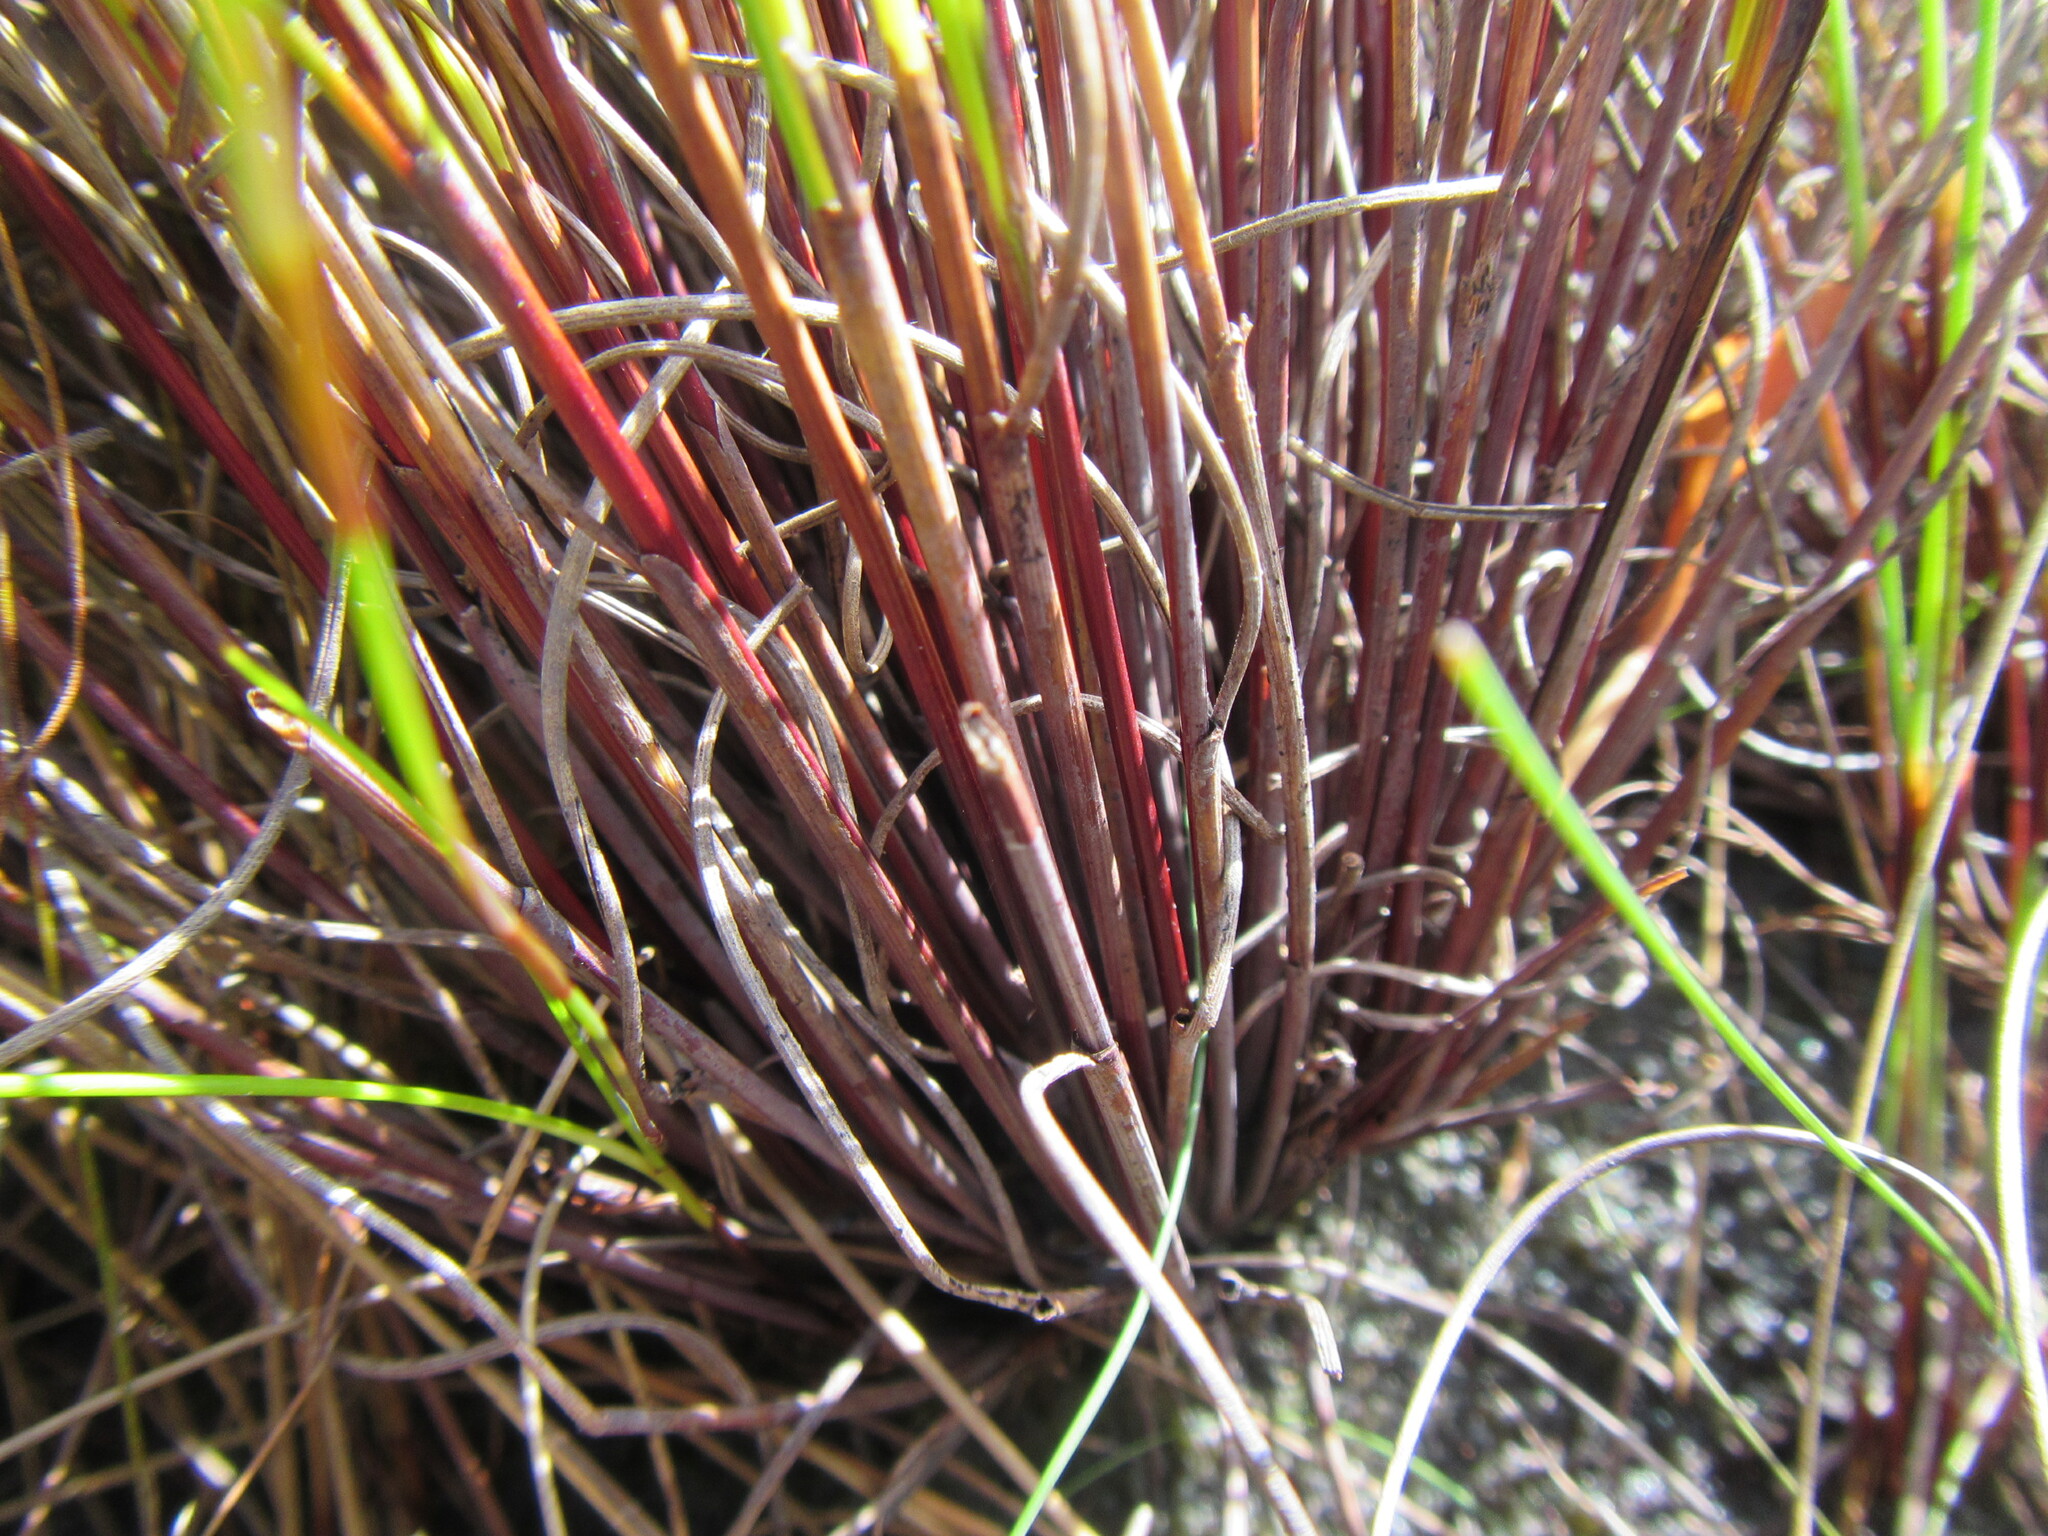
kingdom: Plantae
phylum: Tracheophyta
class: Liliopsida
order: Poales
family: Cyperaceae
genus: Schoenus
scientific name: Schoenus crassus
